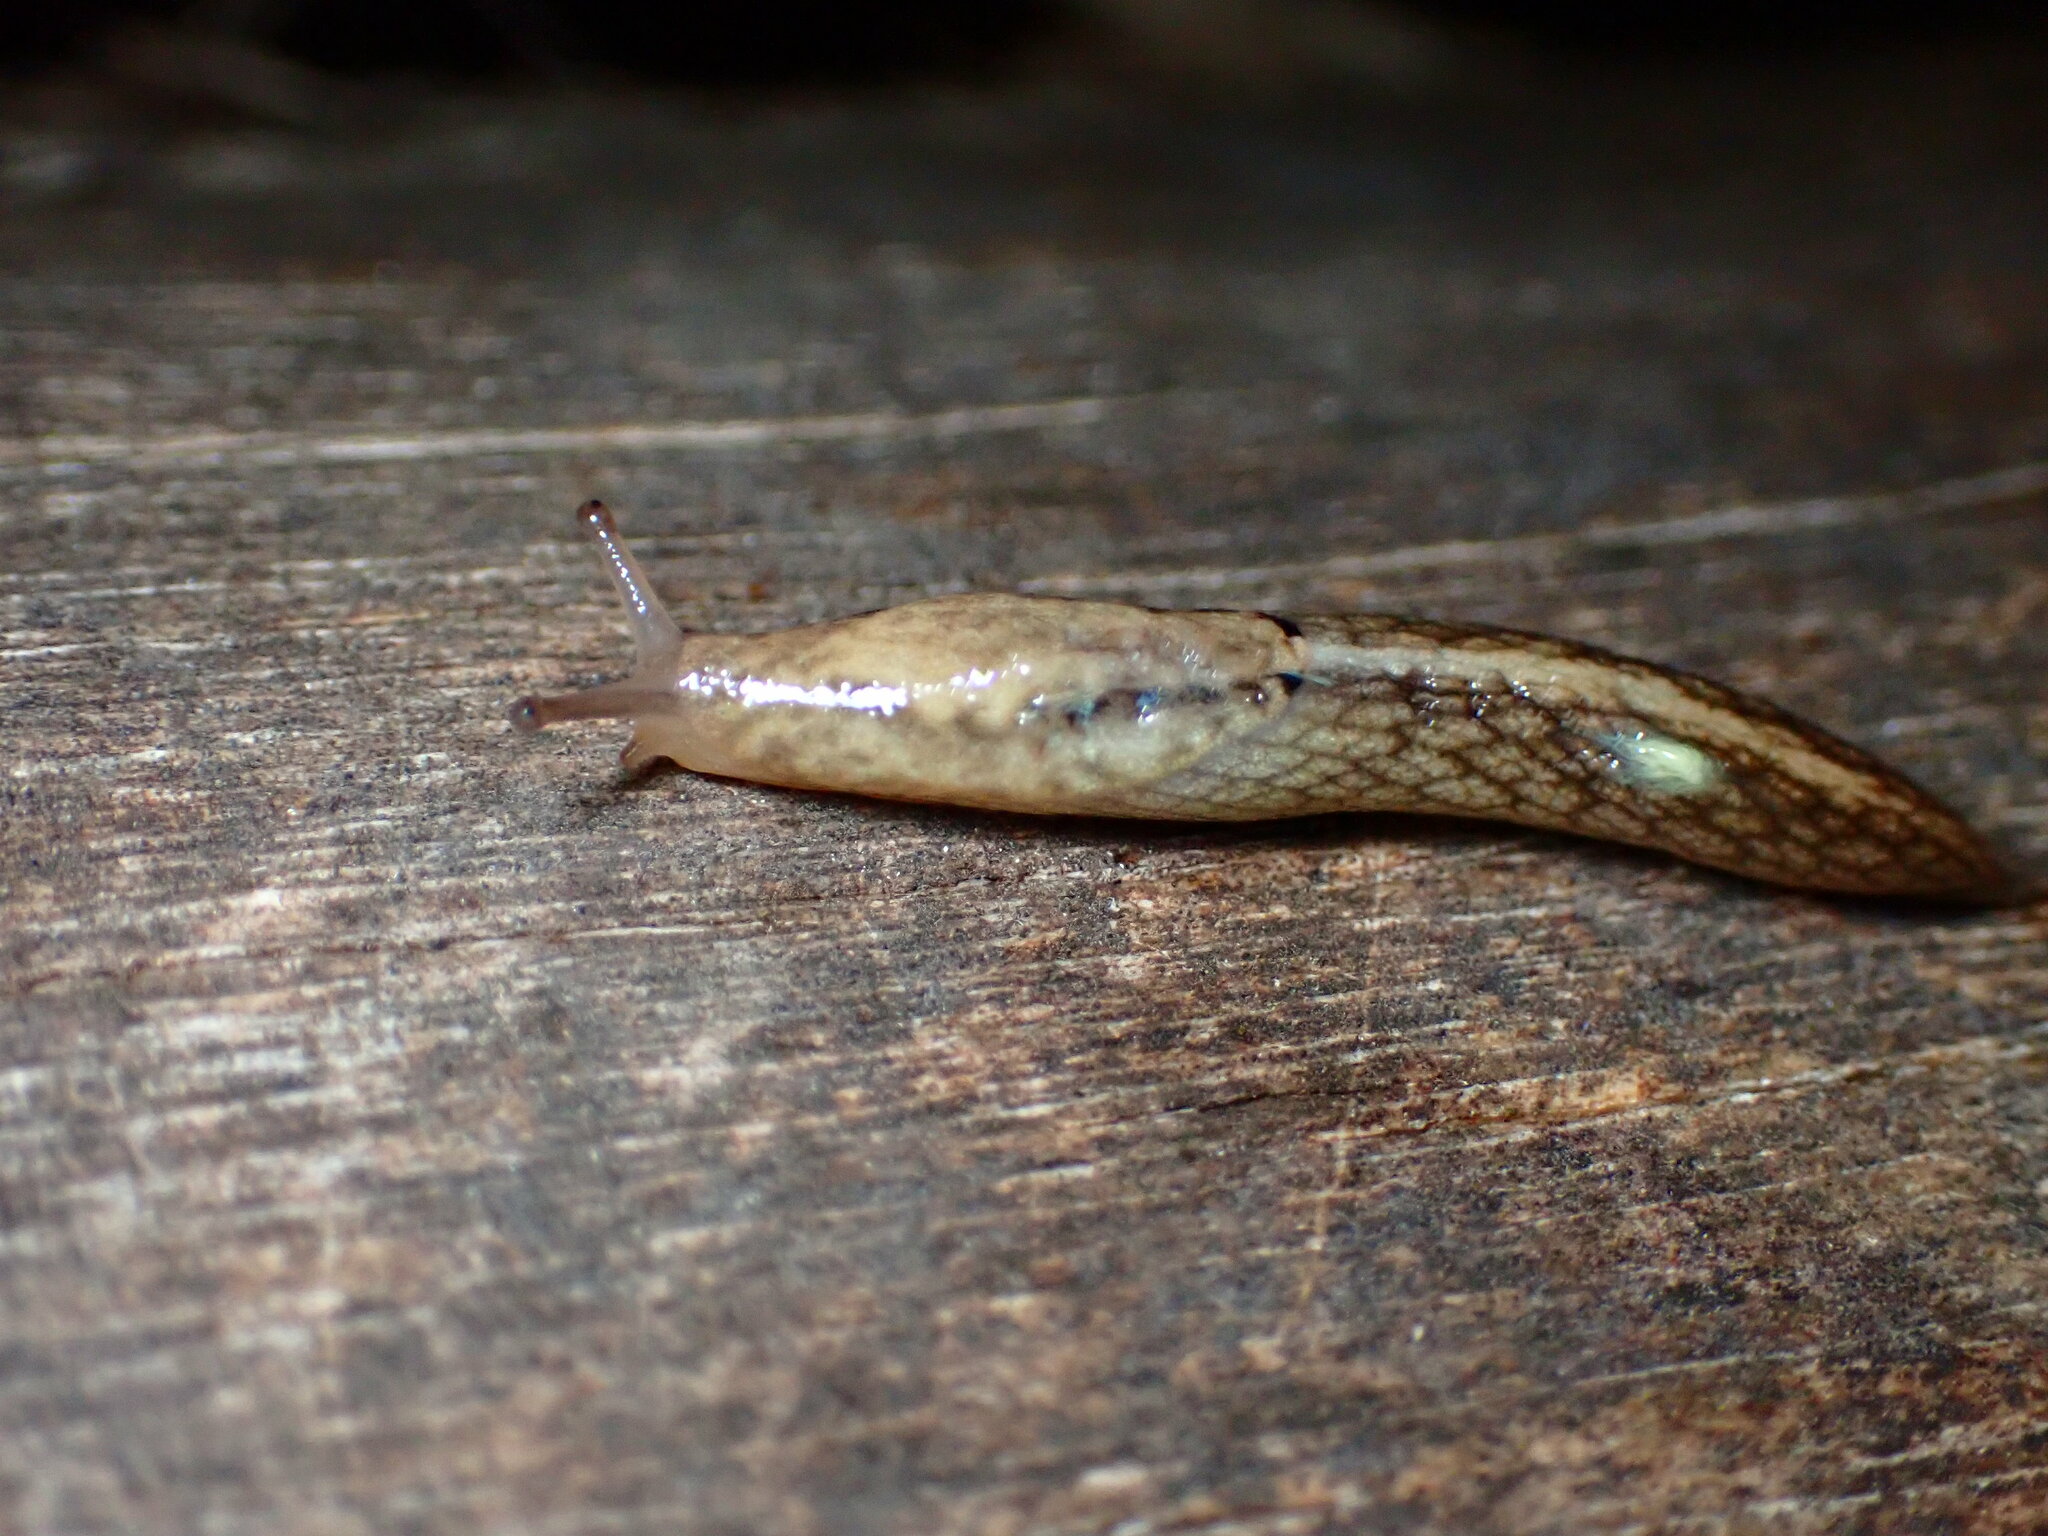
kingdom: Animalia
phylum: Mollusca
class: Gastropoda
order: Stylommatophora
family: Ariolimacidae
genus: Prophysaon
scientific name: Prophysaon andersonii
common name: Reticulate taildropper
